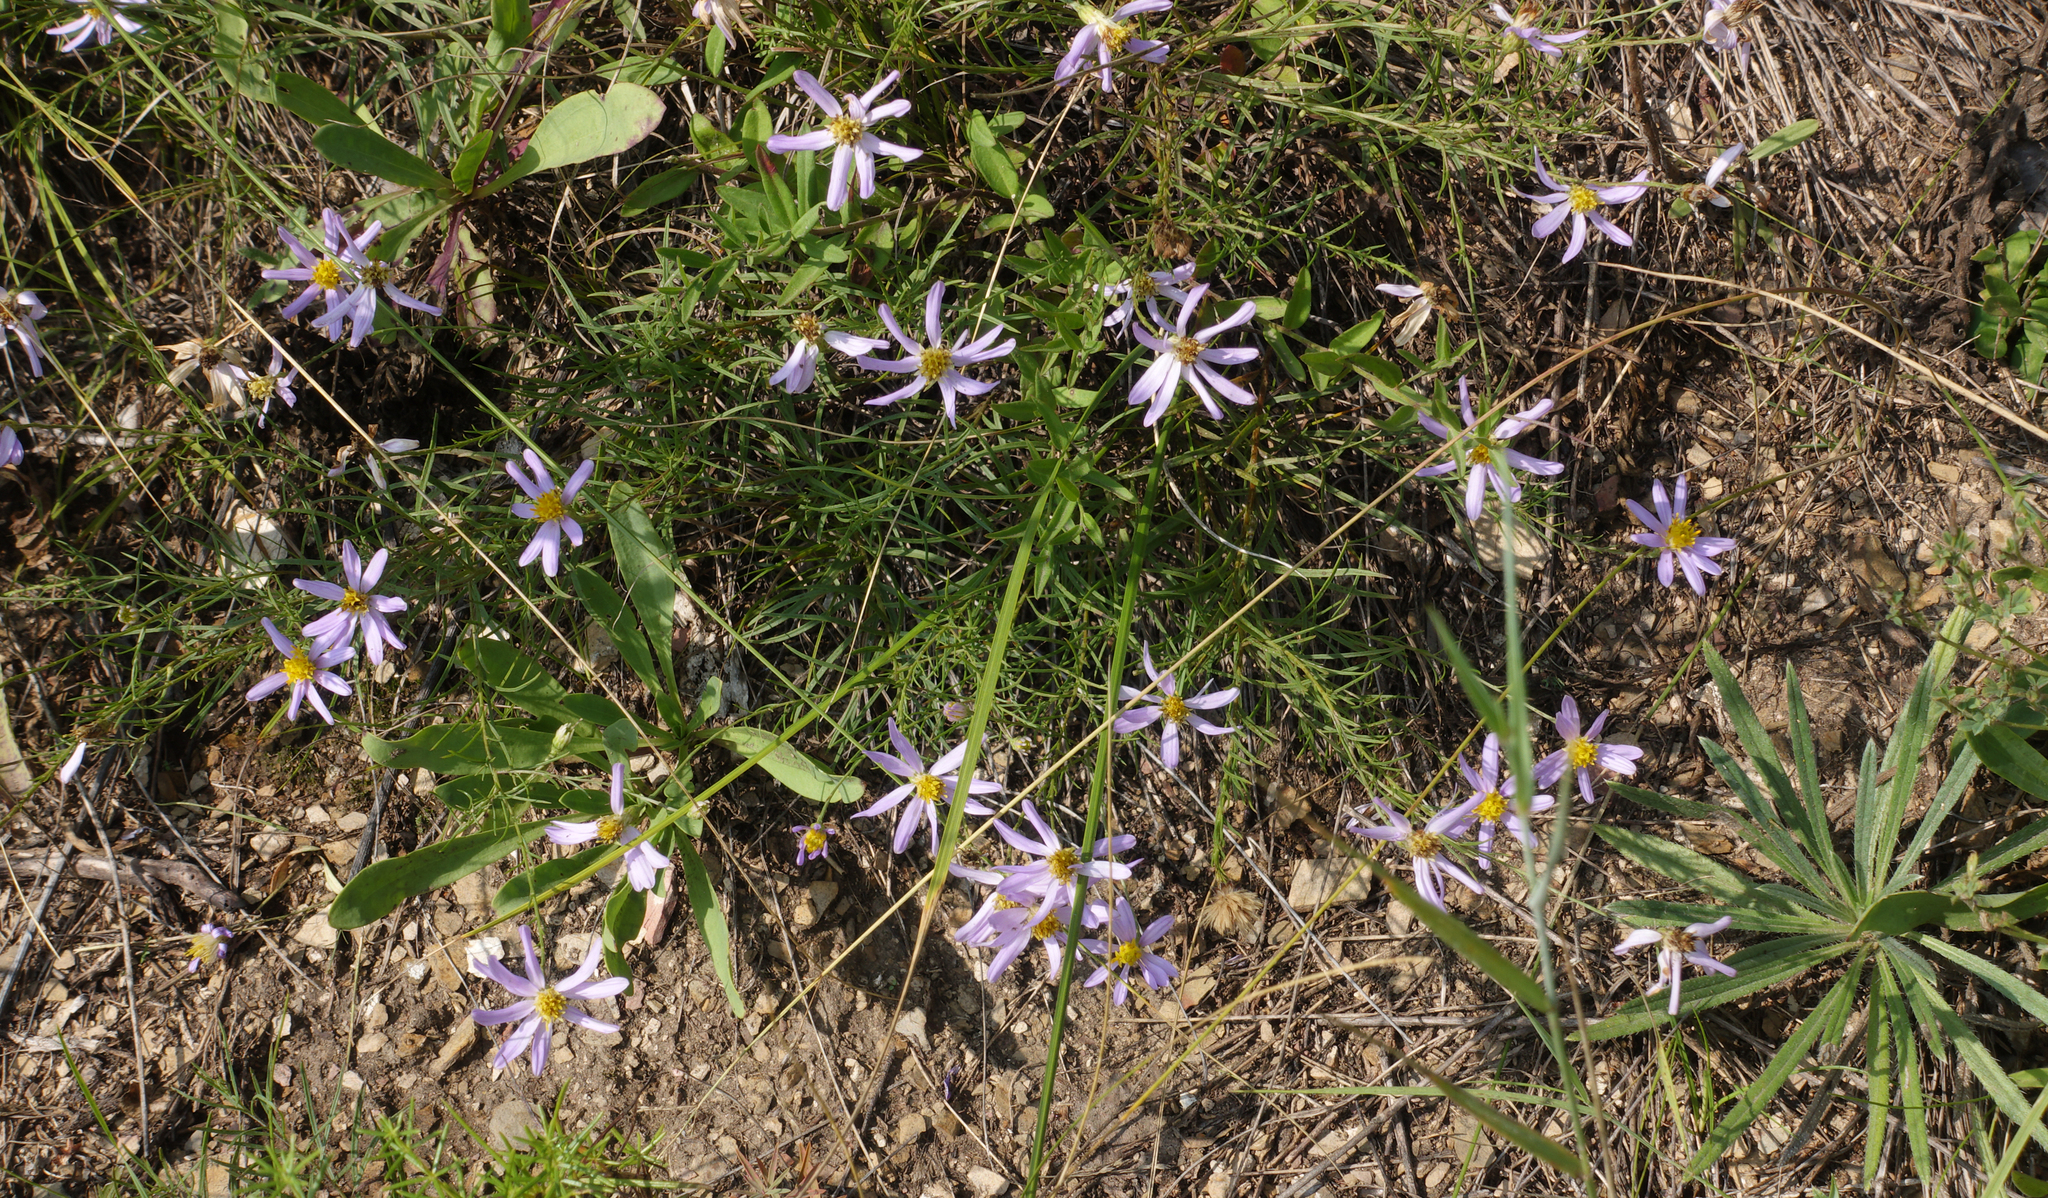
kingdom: Plantae
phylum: Tracheophyta
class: Magnoliopsida
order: Asterales
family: Asteraceae
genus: Galatella
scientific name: Galatella angustissima
